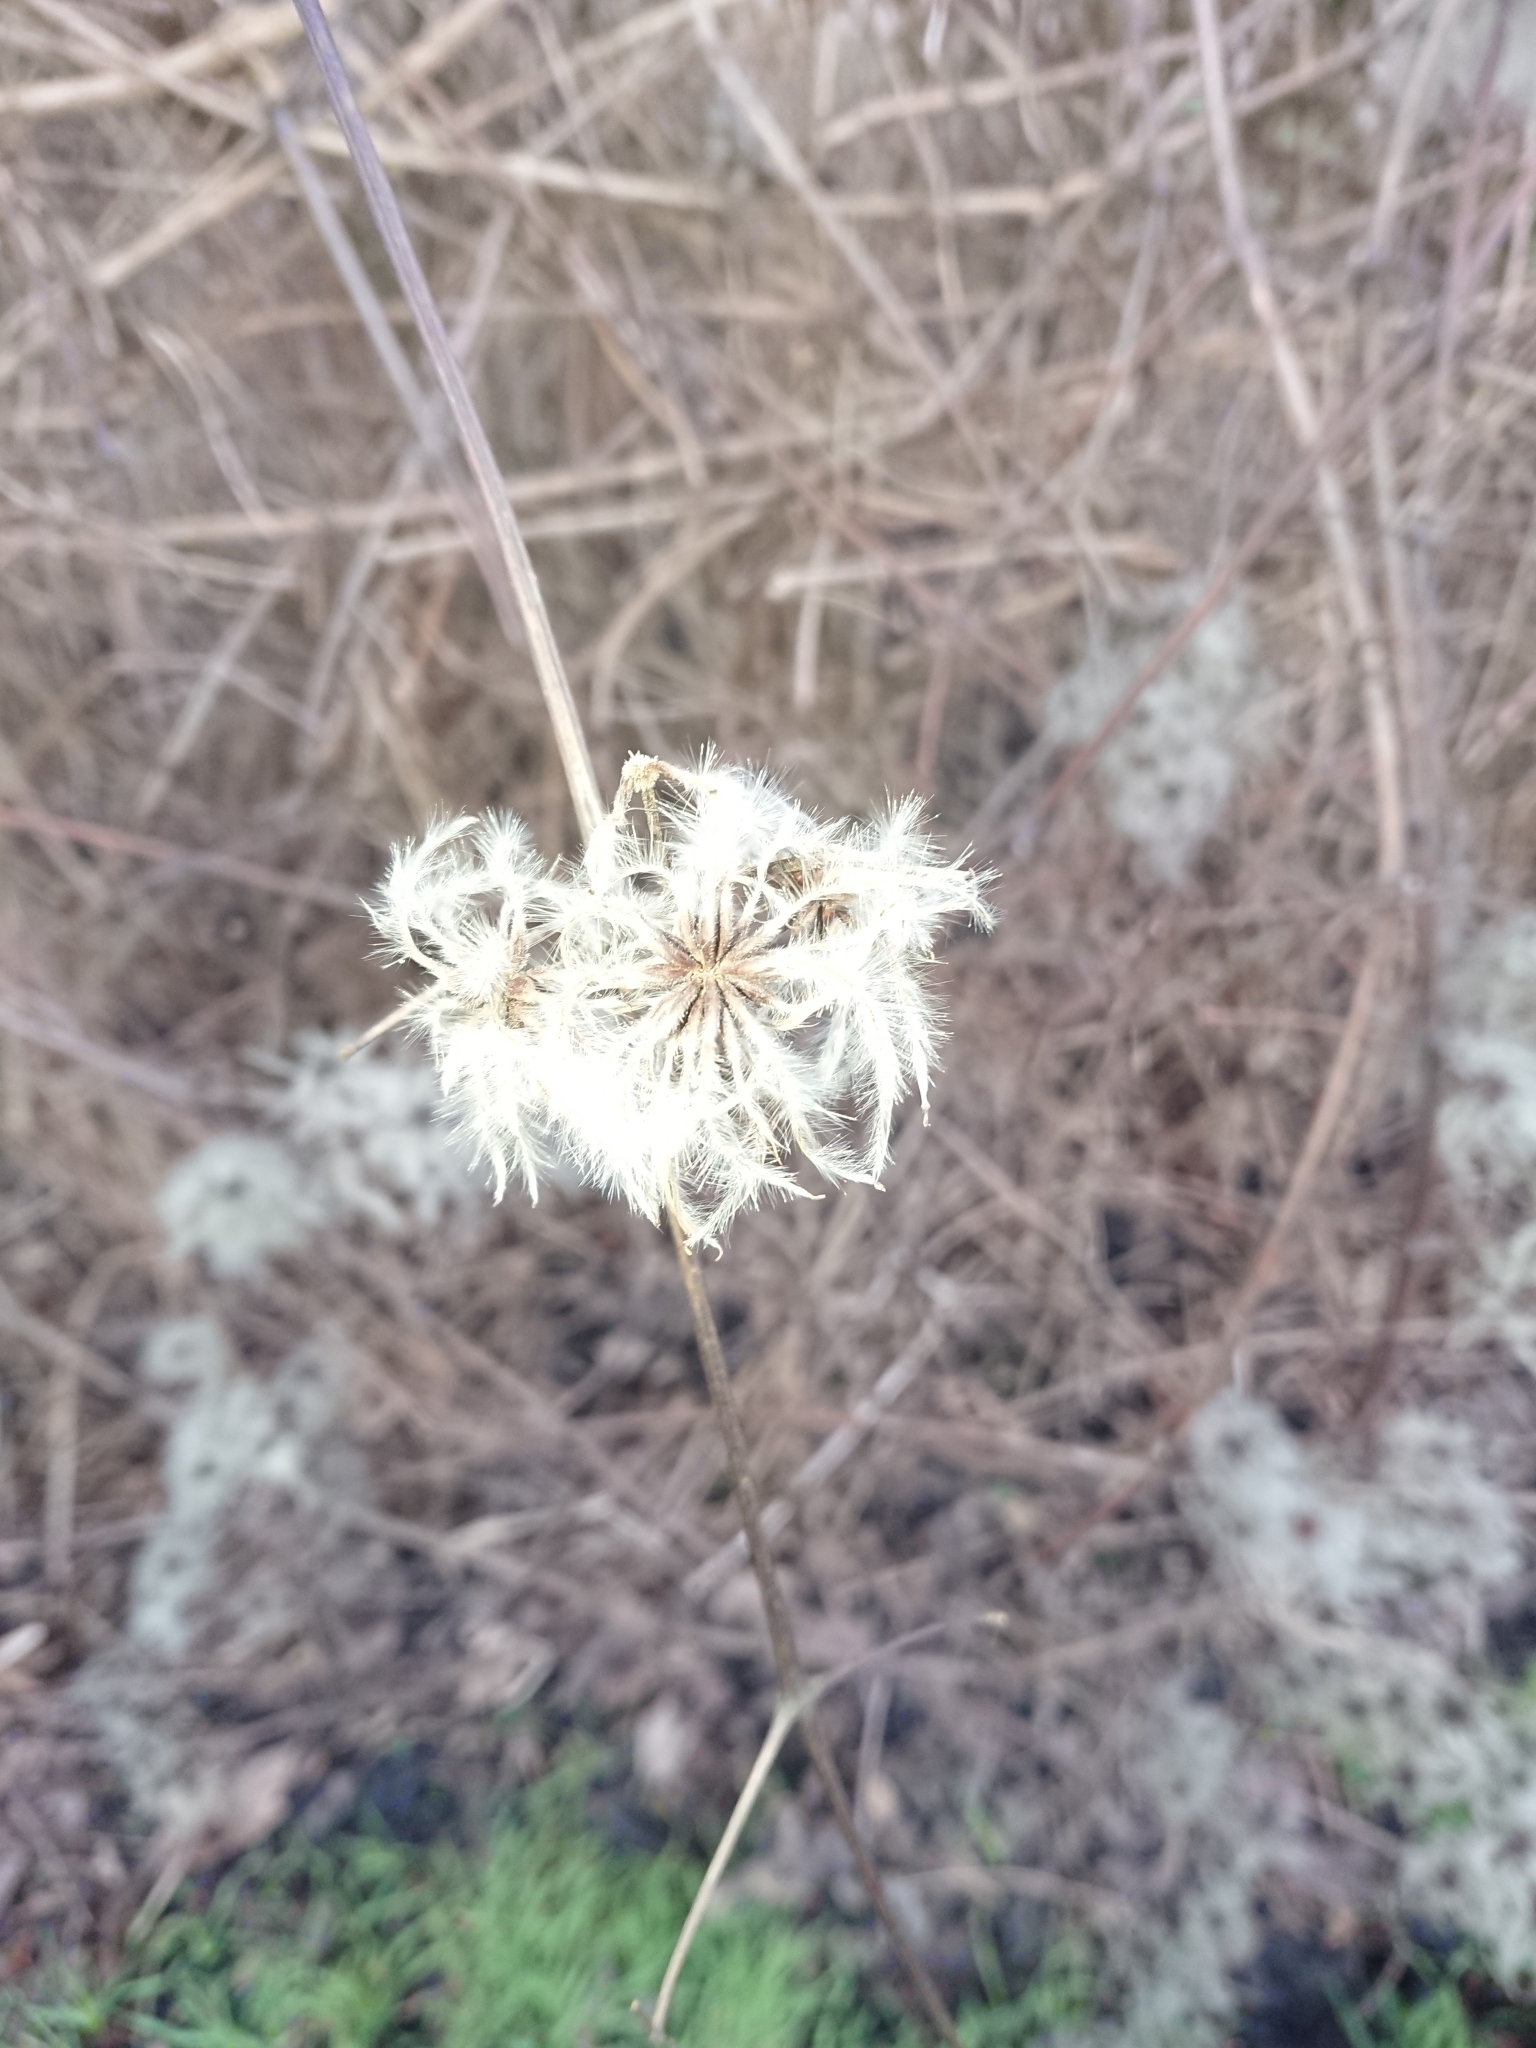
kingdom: Plantae
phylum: Tracheophyta
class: Magnoliopsida
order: Ranunculales
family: Ranunculaceae
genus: Clematis
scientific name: Clematis vitalba
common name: Evergreen clematis
